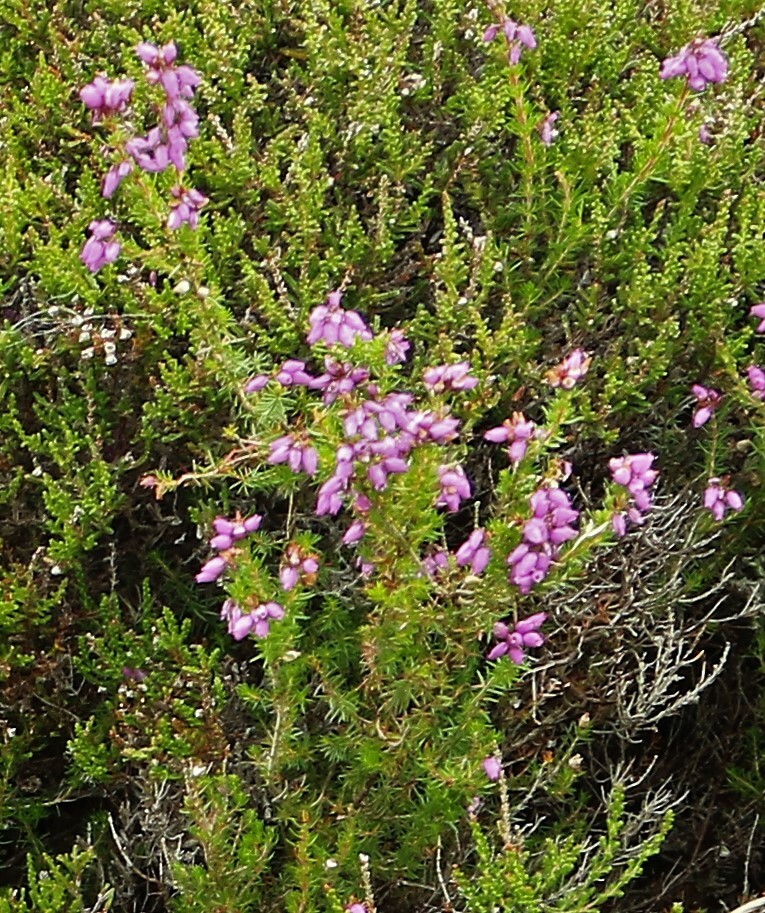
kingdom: Plantae
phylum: Tracheophyta
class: Magnoliopsida
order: Ericales
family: Ericaceae
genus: Erica
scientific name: Erica cinerea
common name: Bell heather
